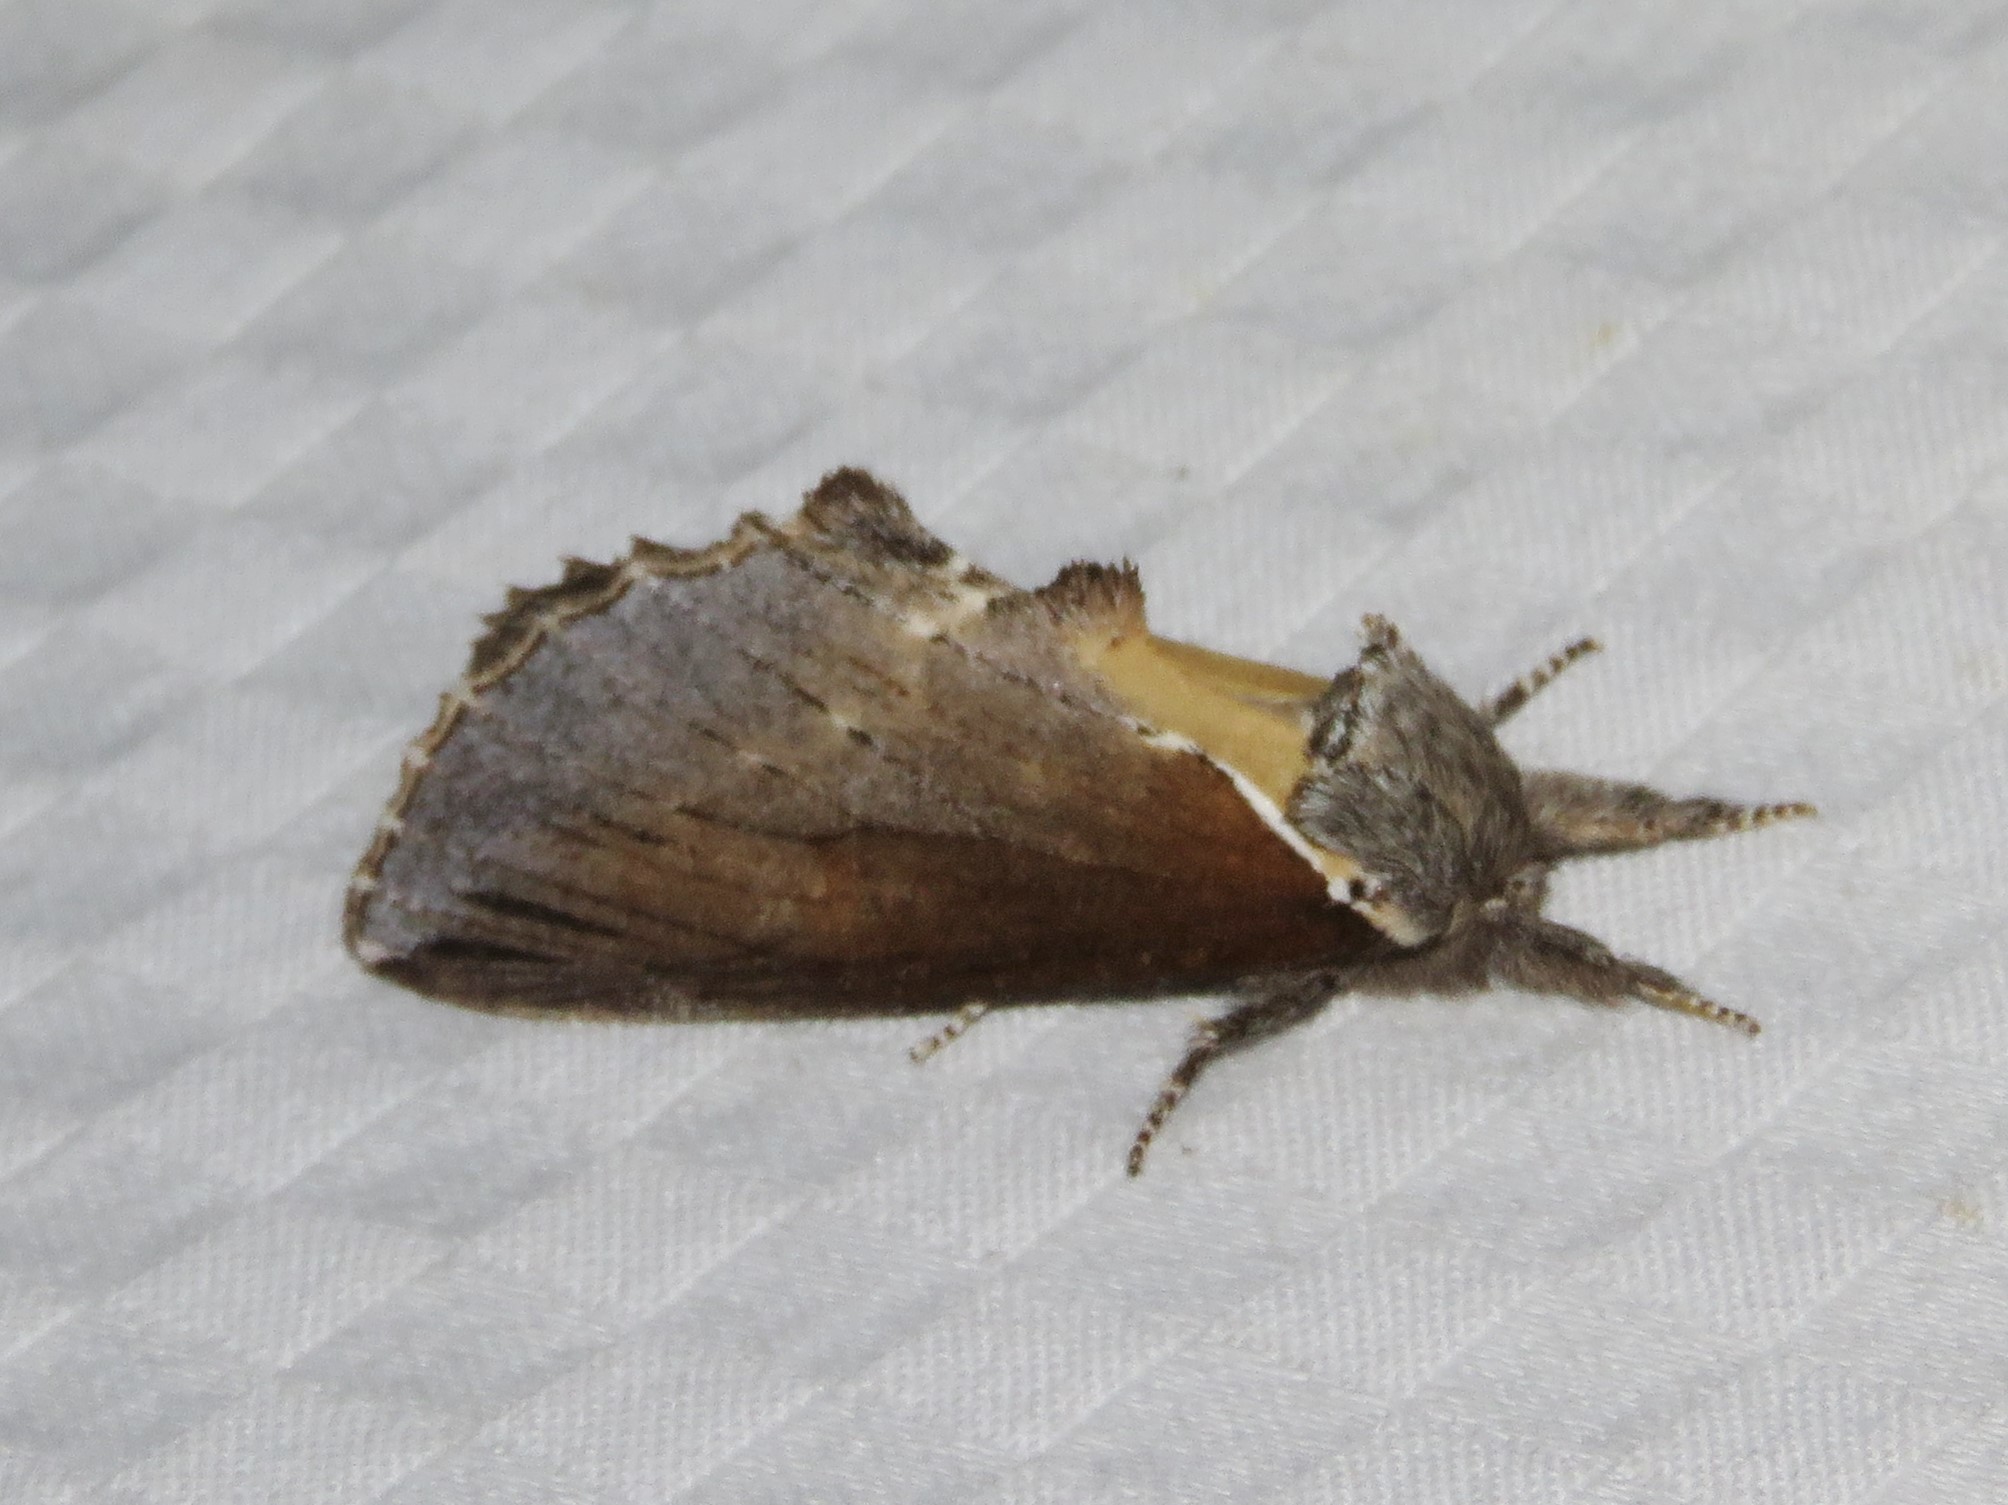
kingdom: Animalia
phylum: Arthropoda
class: Insecta
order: Lepidoptera
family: Notodontidae
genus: Pheosidea
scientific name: Pheosidea elegans
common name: Elegant prominent
